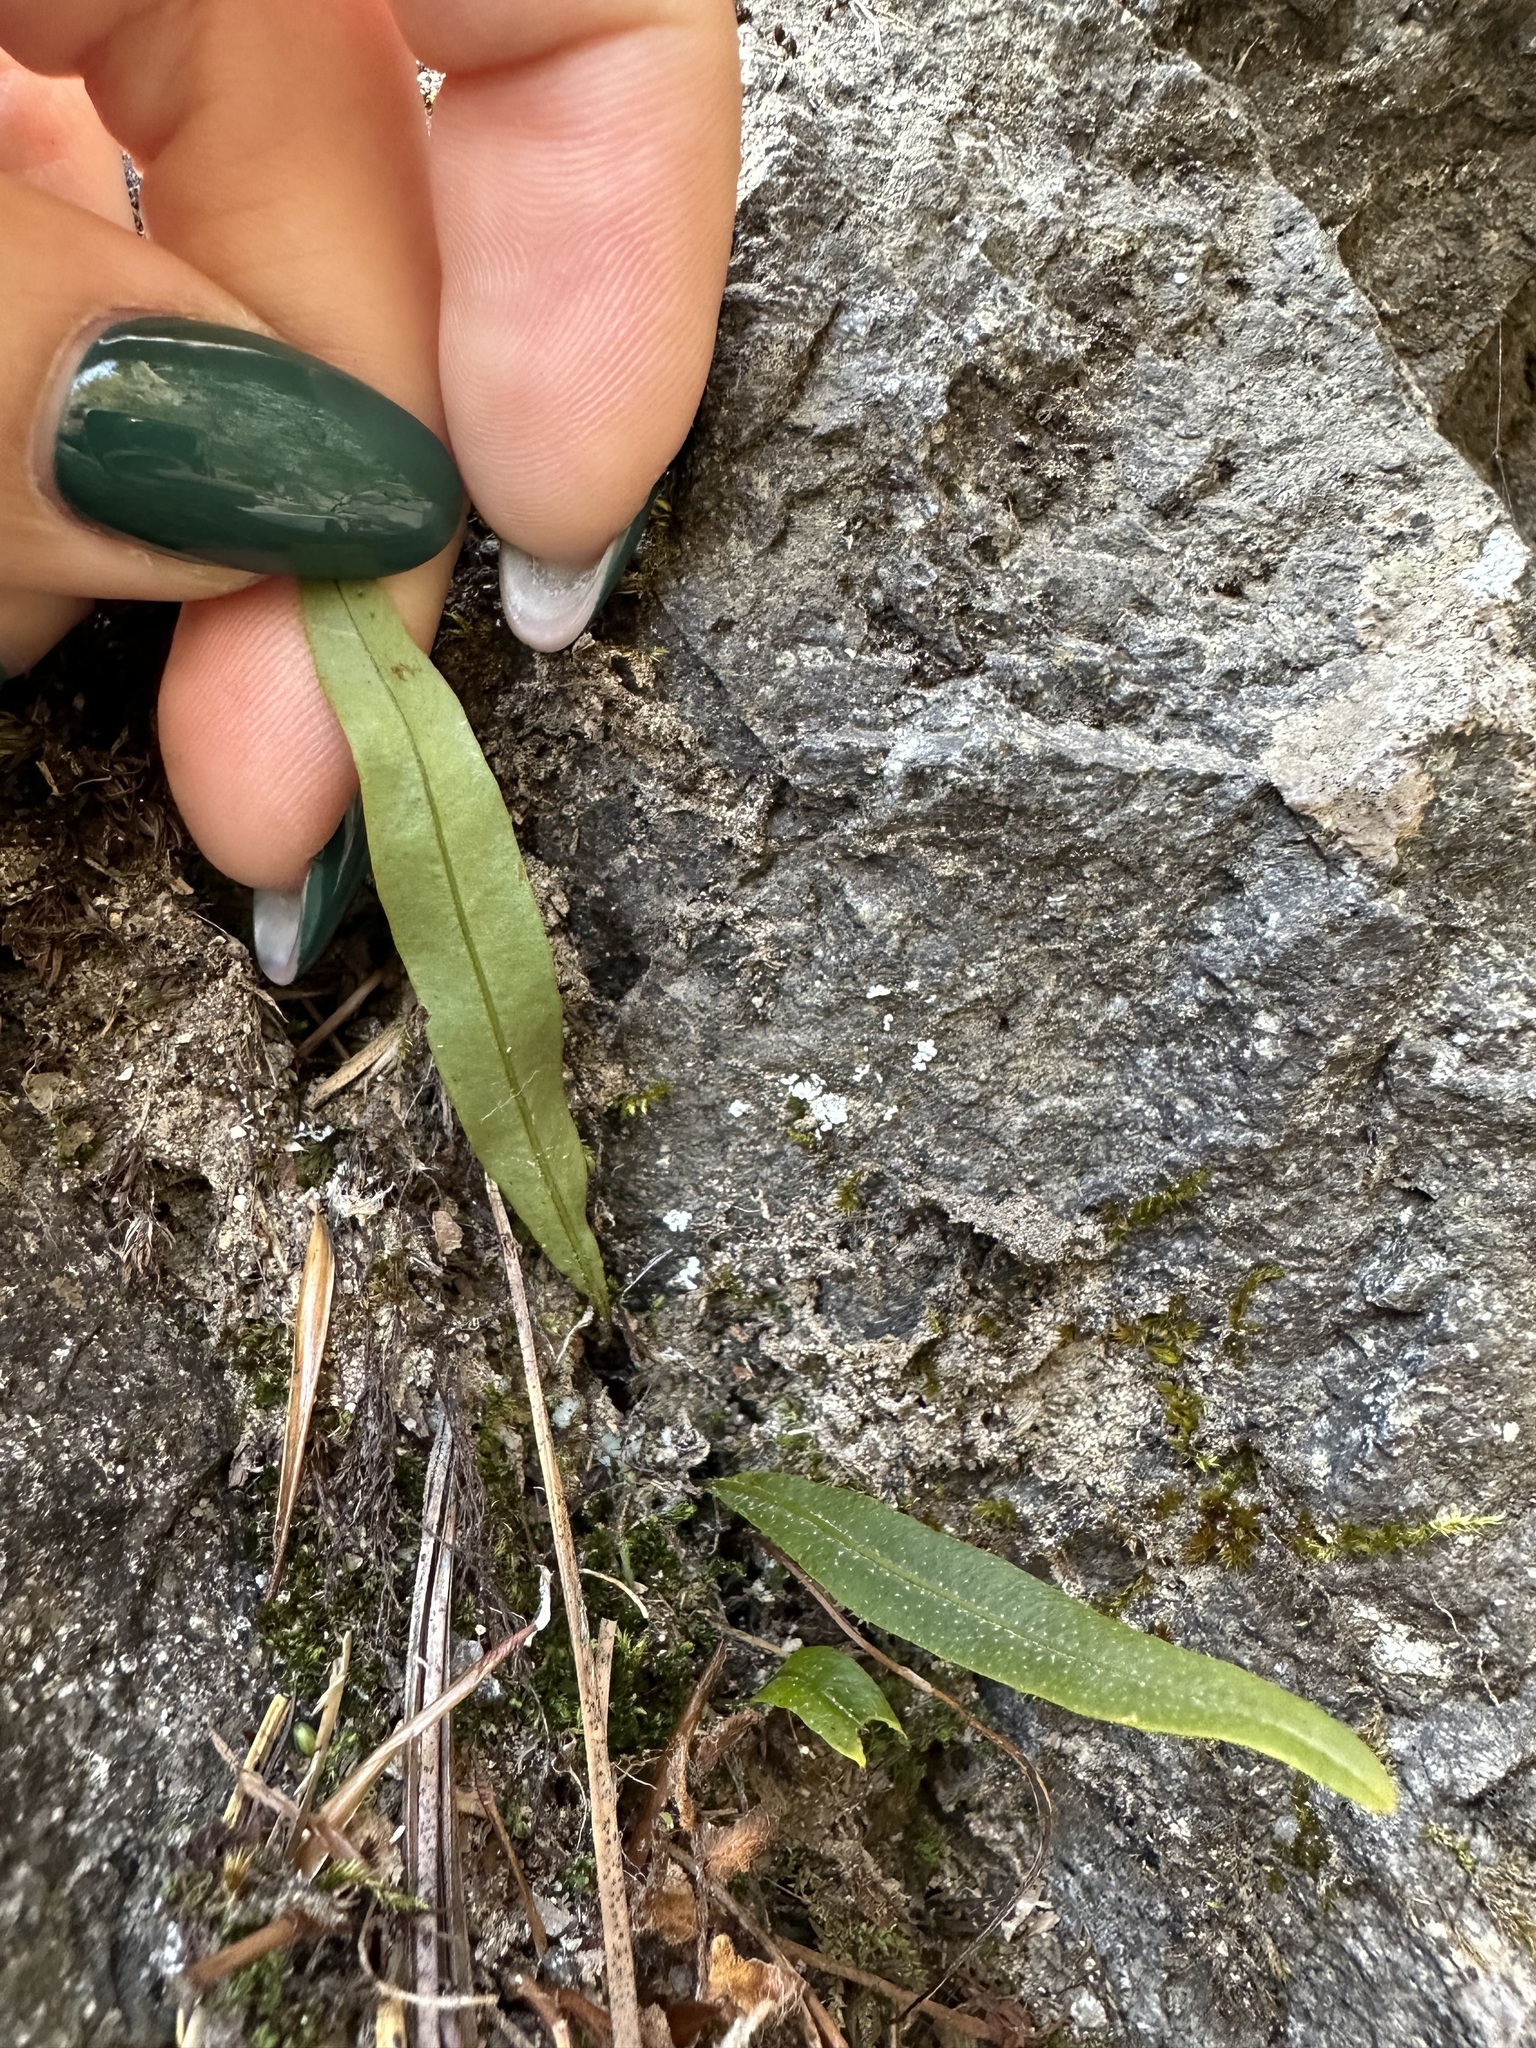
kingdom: Plantae
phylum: Tracheophyta
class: Polypodiopsida
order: Polypodiales
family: Polypodiaceae
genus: Lepisorus
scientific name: Lepisorus ussuriensis
